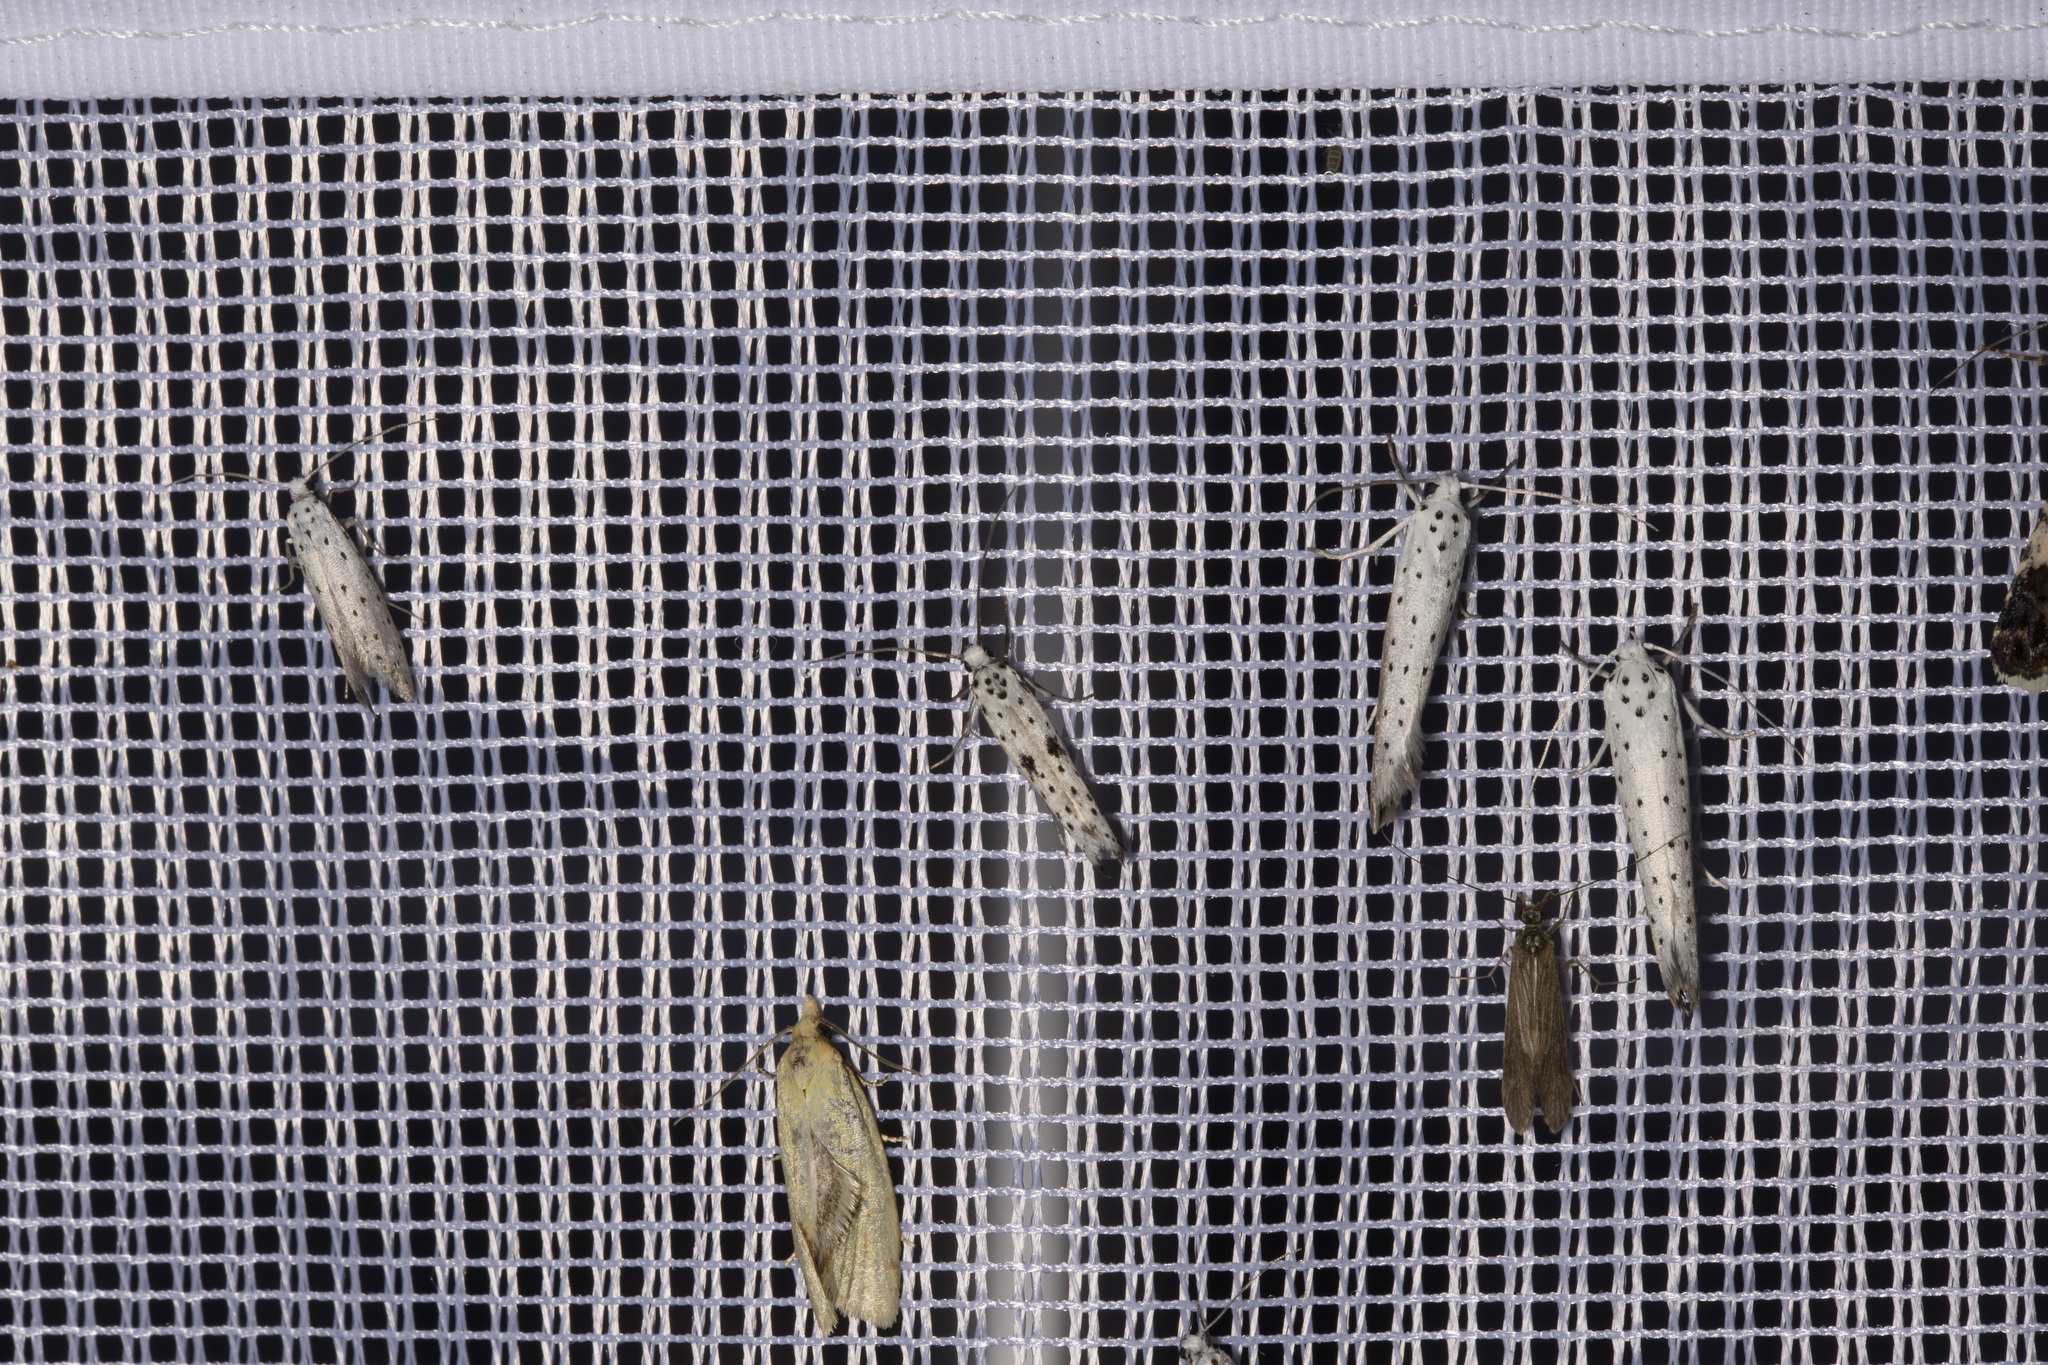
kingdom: Animalia
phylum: Arthropoda
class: Insecta
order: Lepidoptera
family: Yponomeutidae
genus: Yponomeuta
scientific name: Yponomeuta plumbella
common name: Black-tipped ermine
